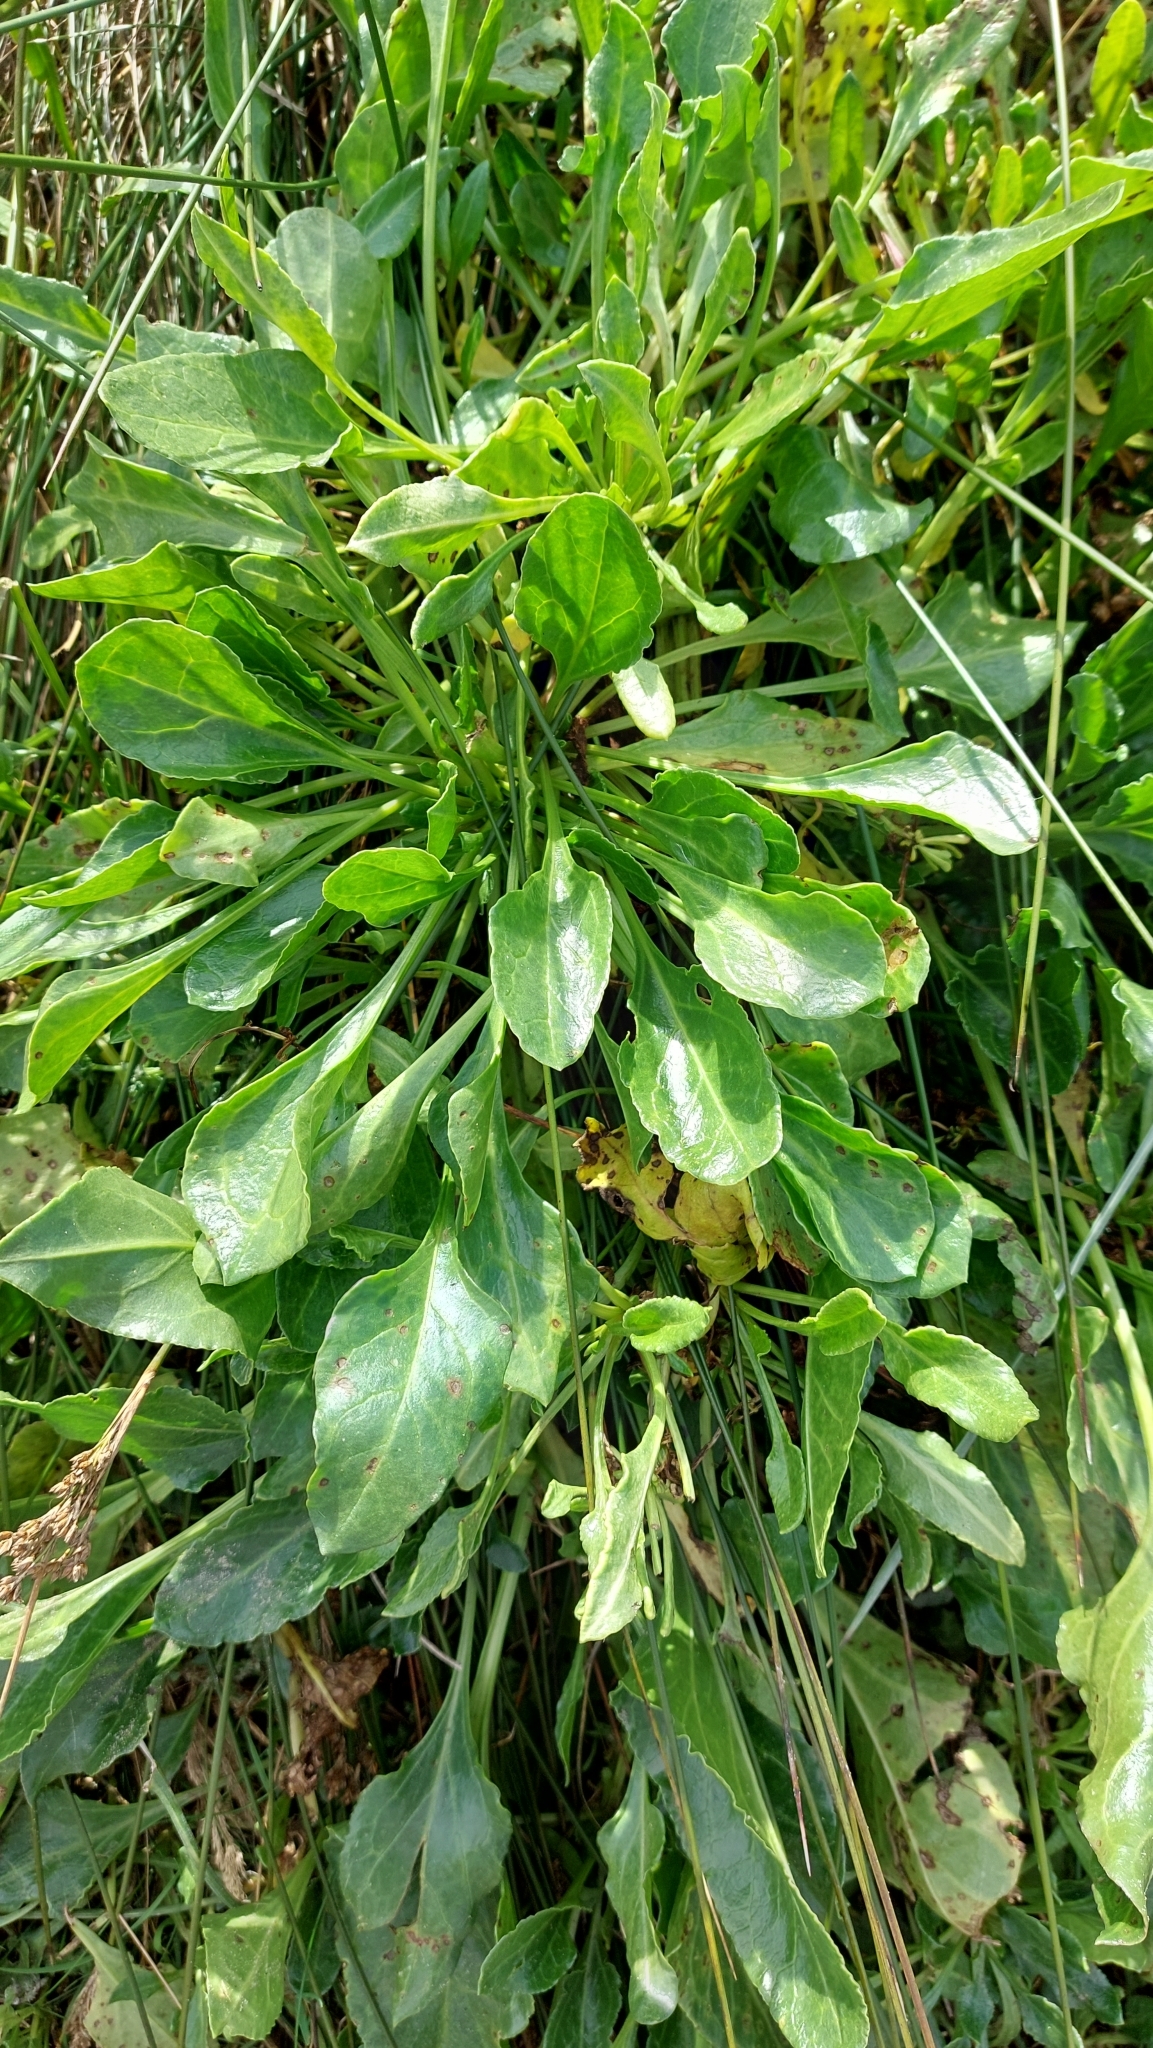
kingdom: Plantae
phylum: Tracheophyta
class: Magnoliopsida
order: Caryophyllales
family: Amaranthaceae
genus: Beta
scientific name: Beta vulgaris
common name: Beet
